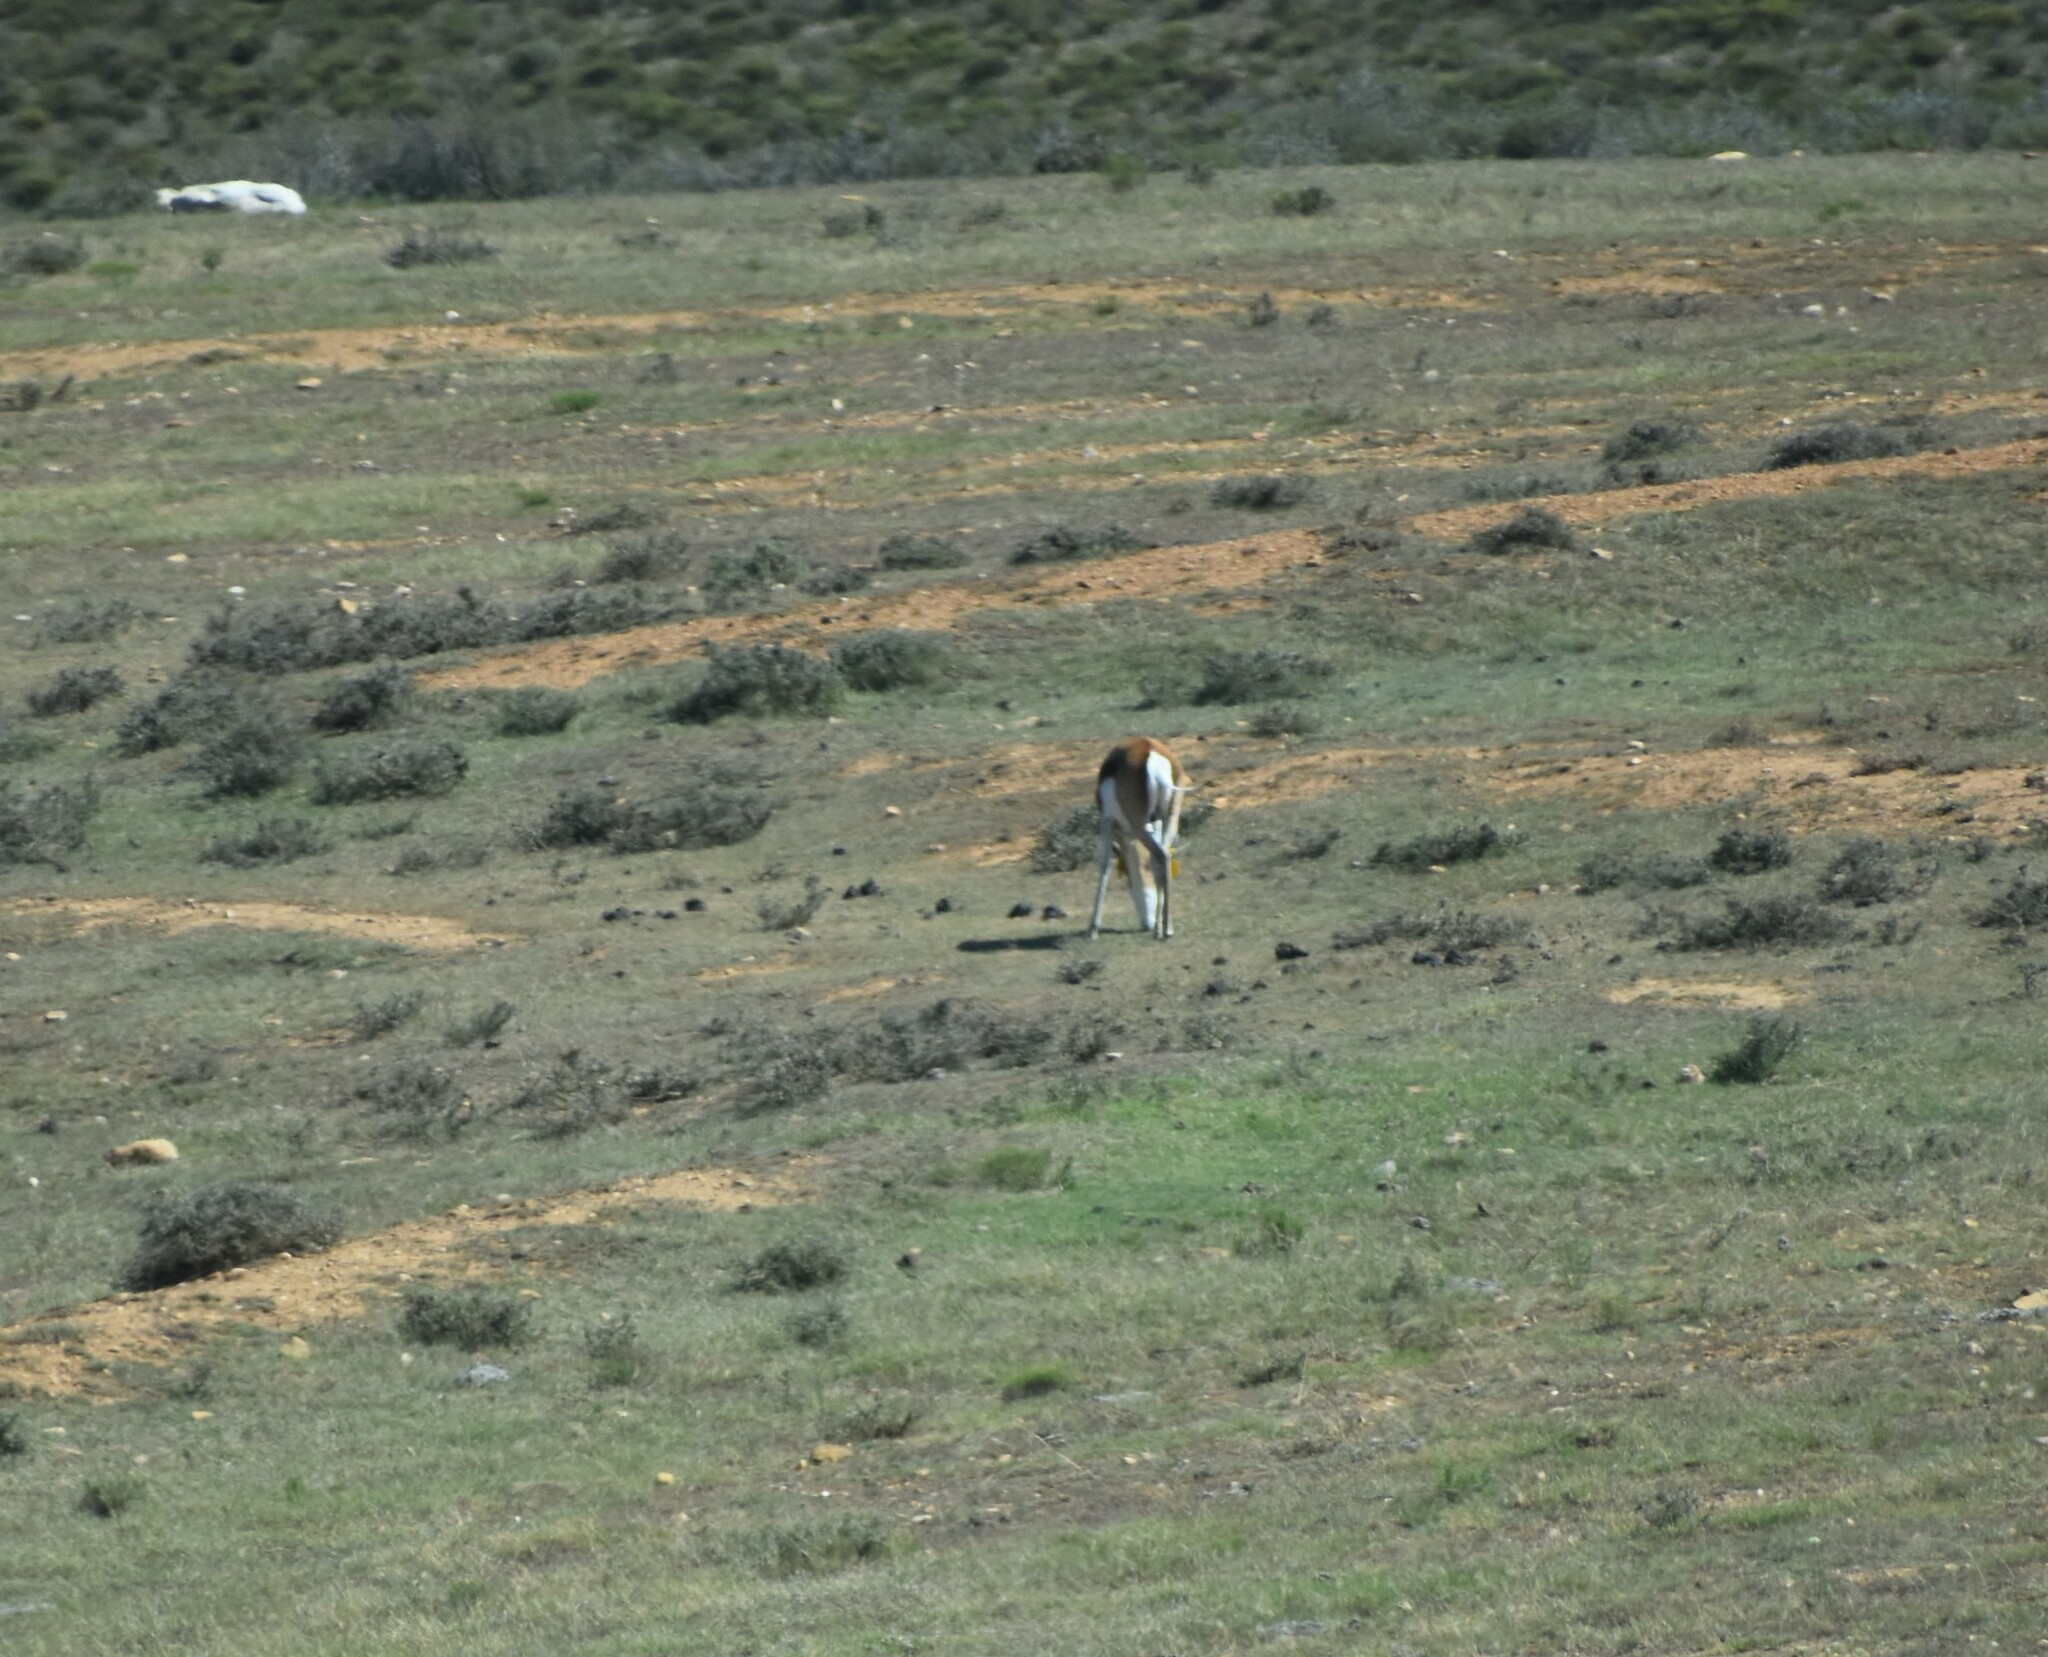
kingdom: Animalia
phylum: Chordata
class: Mammalia
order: Artiodactyla
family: Bovidae
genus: Antidorcas
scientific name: Antidorcas marsupialis
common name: Springbok
